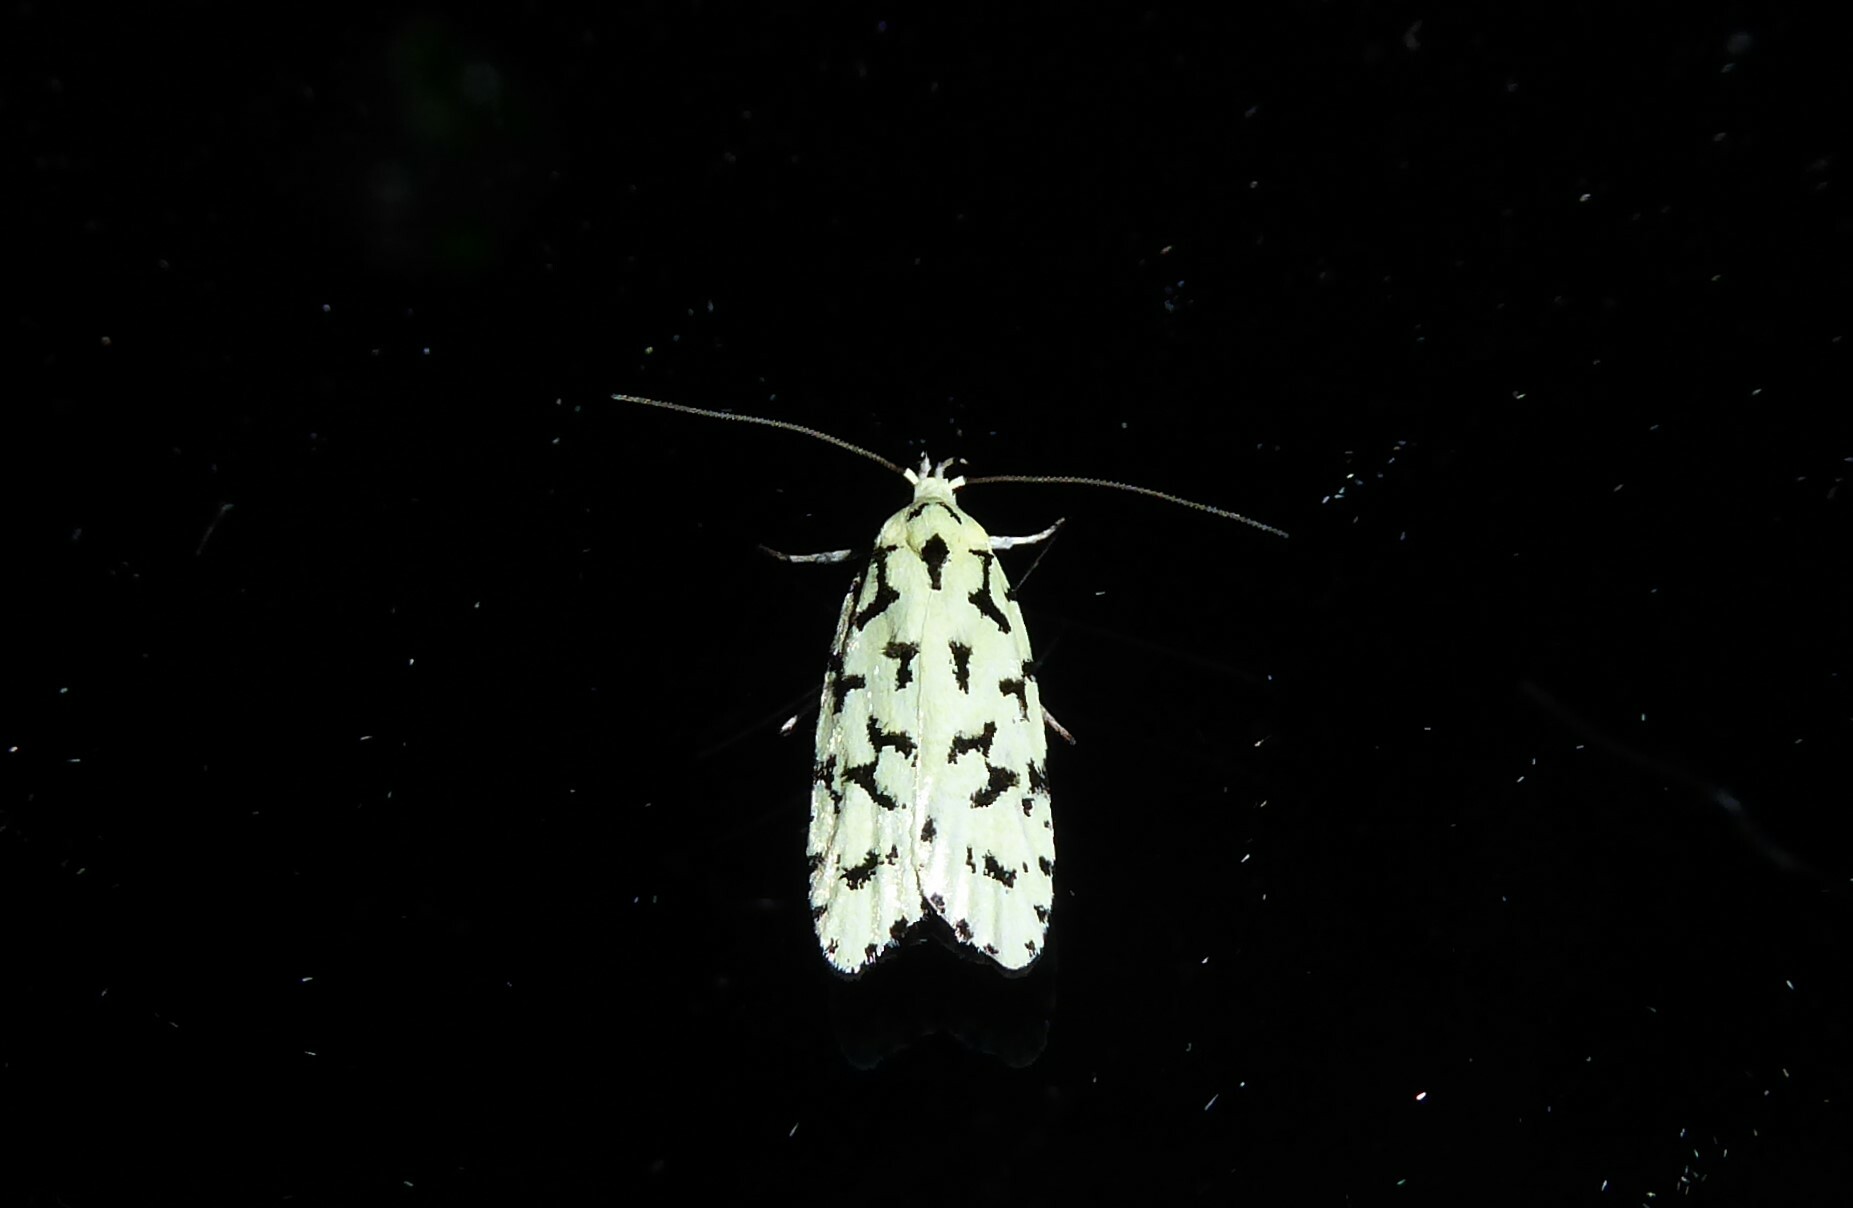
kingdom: Animalia
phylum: Arthropoda
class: Insecta
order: Lepidoptera
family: Oecophoridae
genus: Izatha
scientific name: Izatha huttoni
